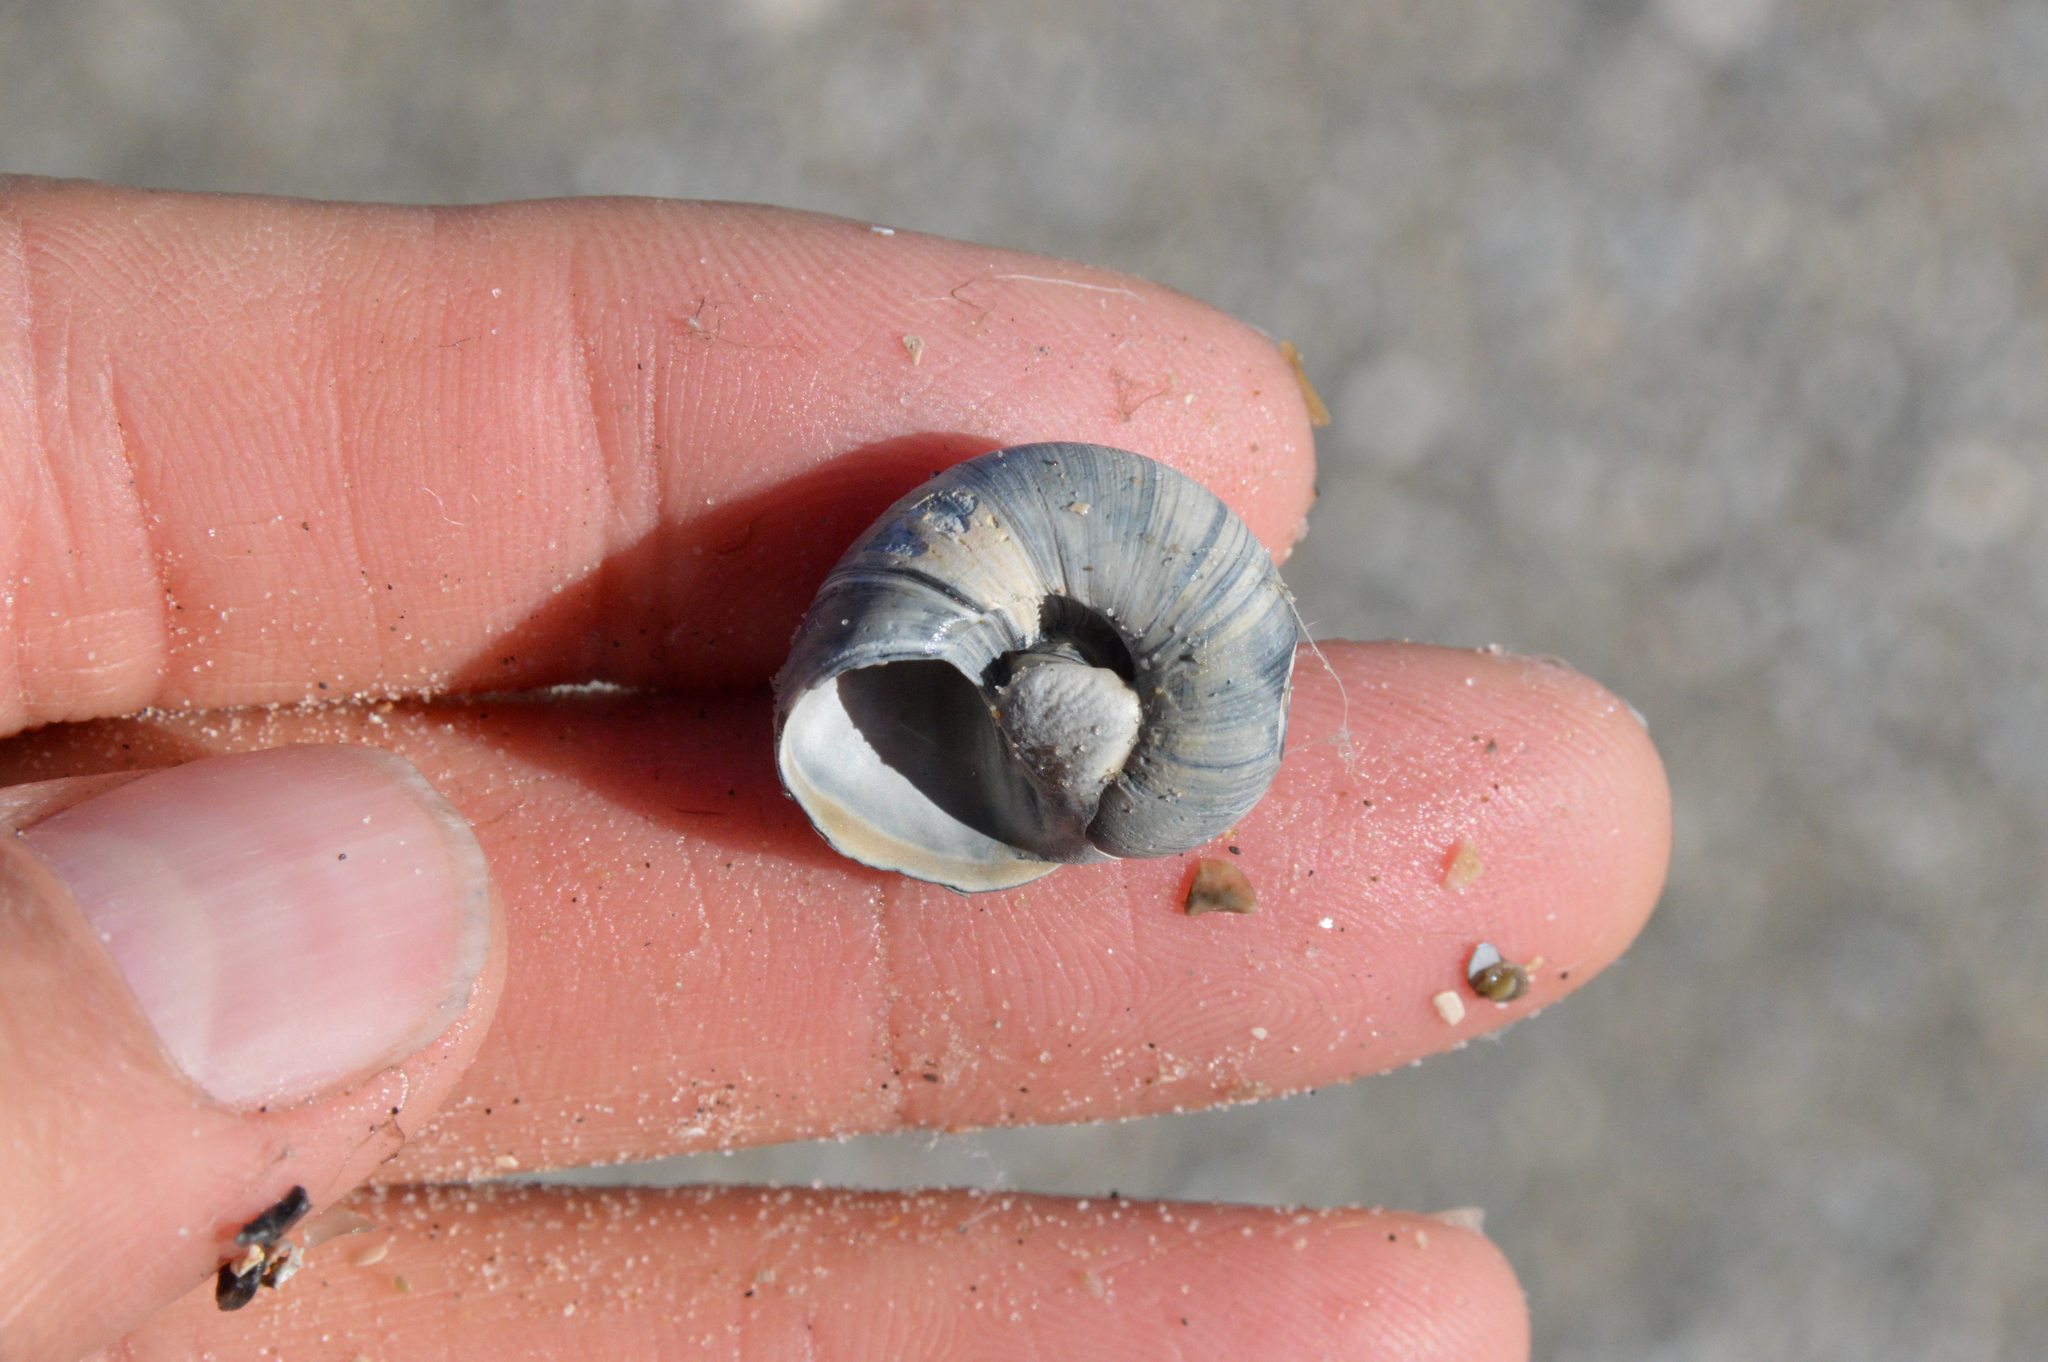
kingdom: Animalia
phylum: Mollusca
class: Gastropoda
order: Littorinimorpha
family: Naticidae
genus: Neverita
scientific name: Neverita delessertiana
